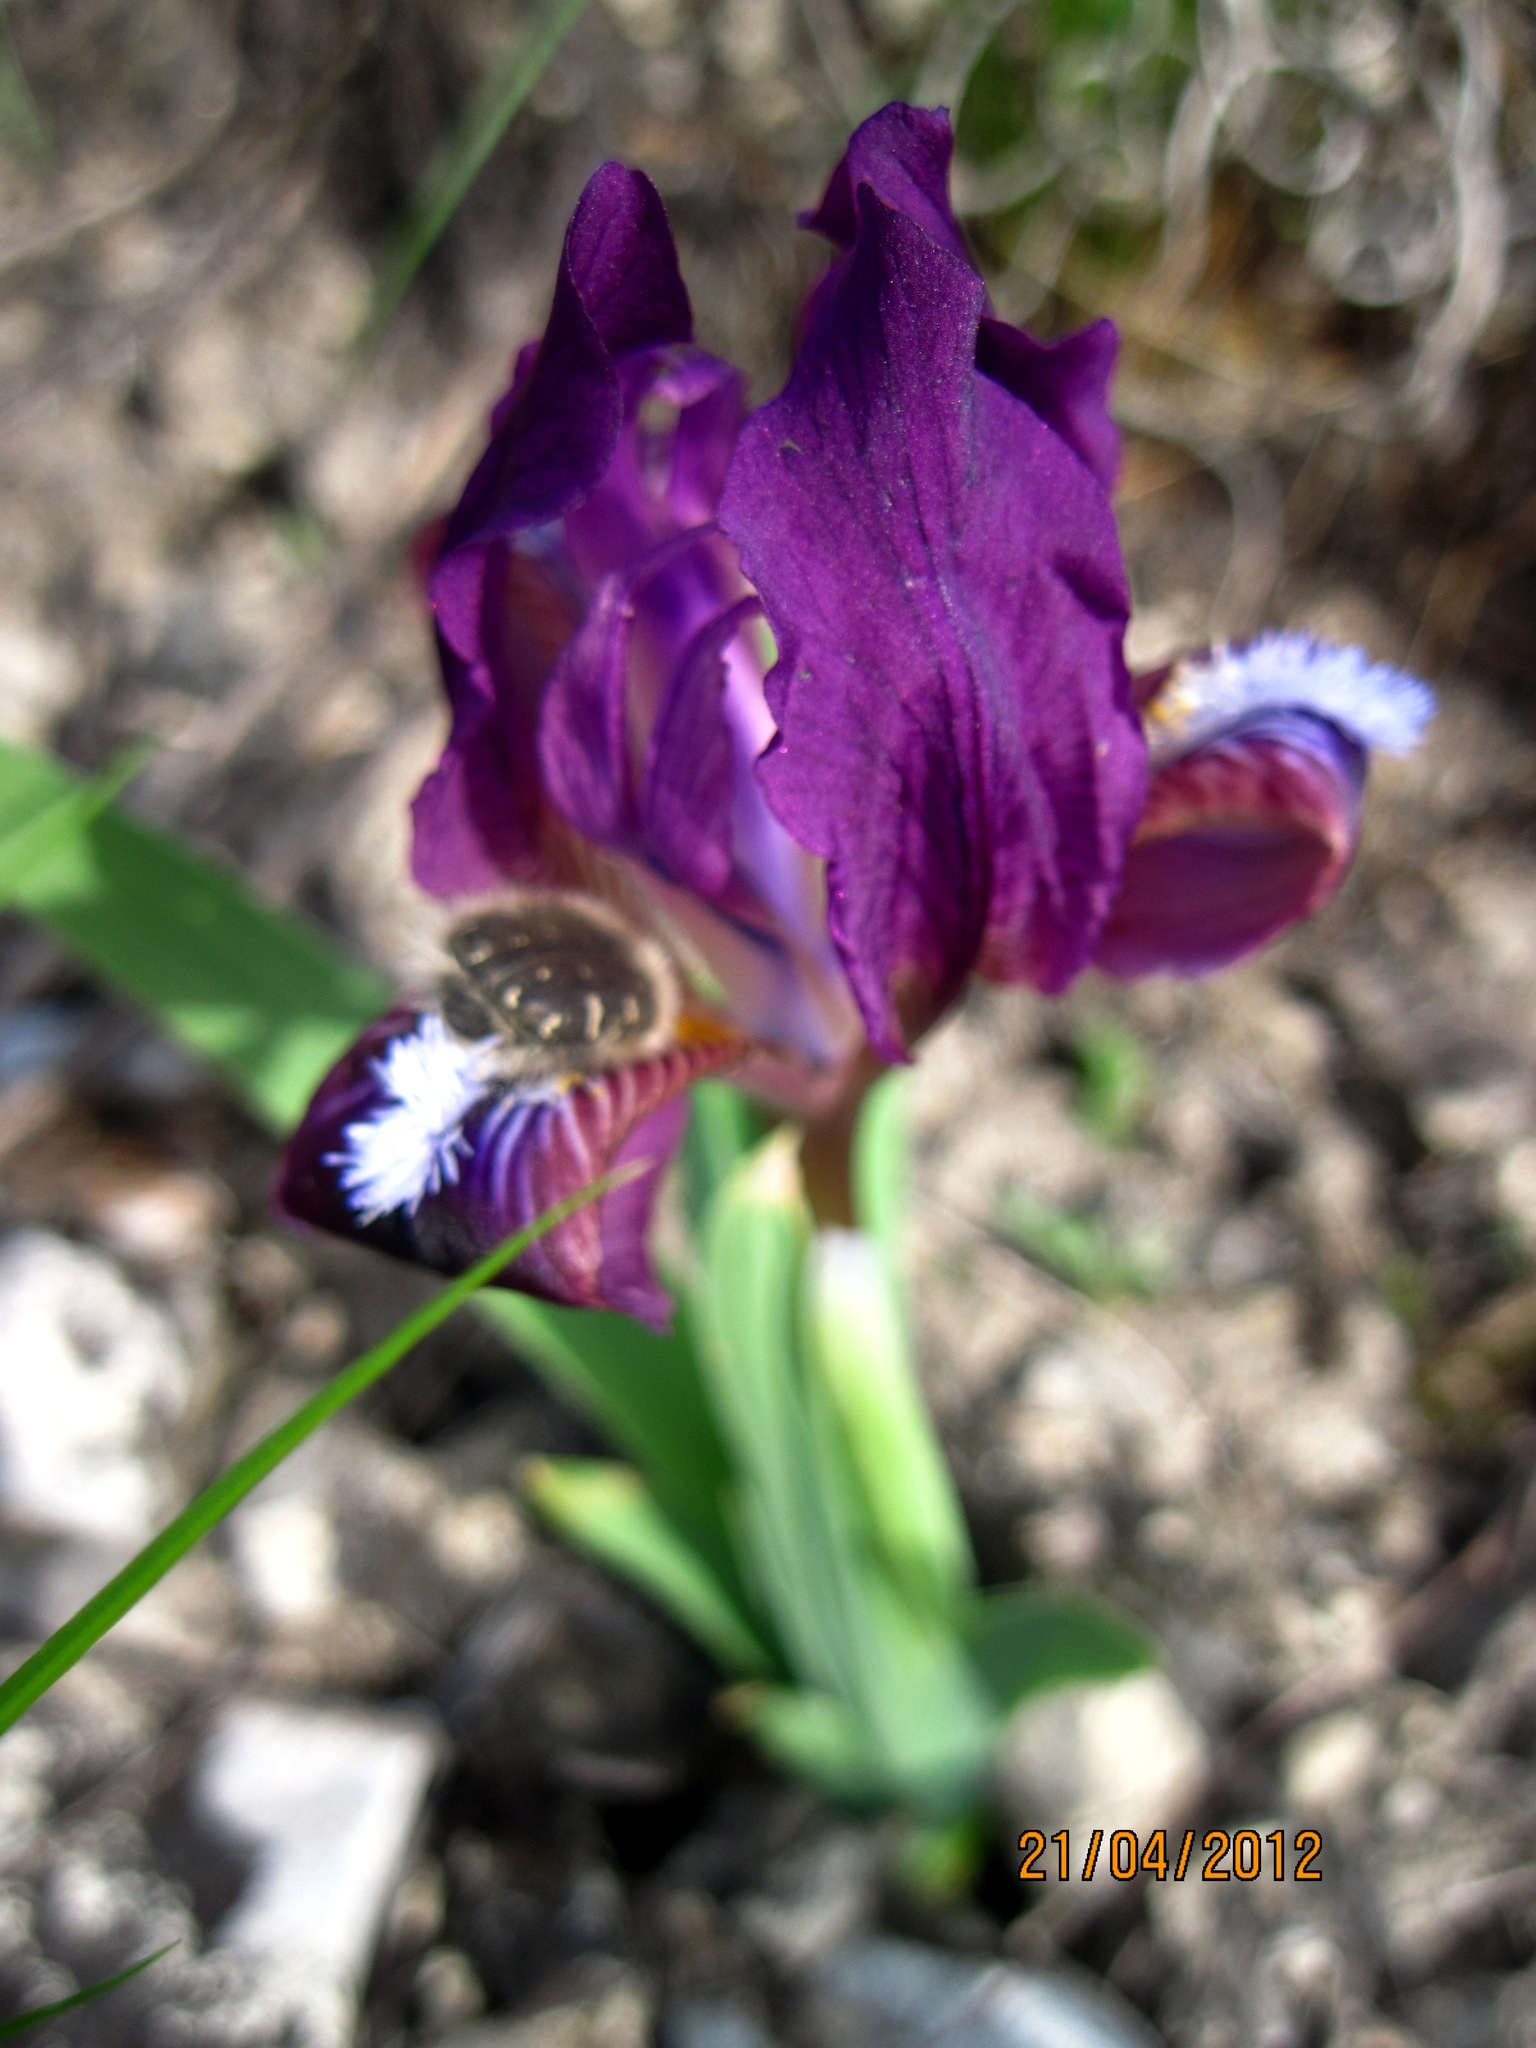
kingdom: Plantae
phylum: Tracheophyta
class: Liliopsida
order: Asparagales
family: Iridaceae
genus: Iris
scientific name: Iris pumila
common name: Dwarf iris
